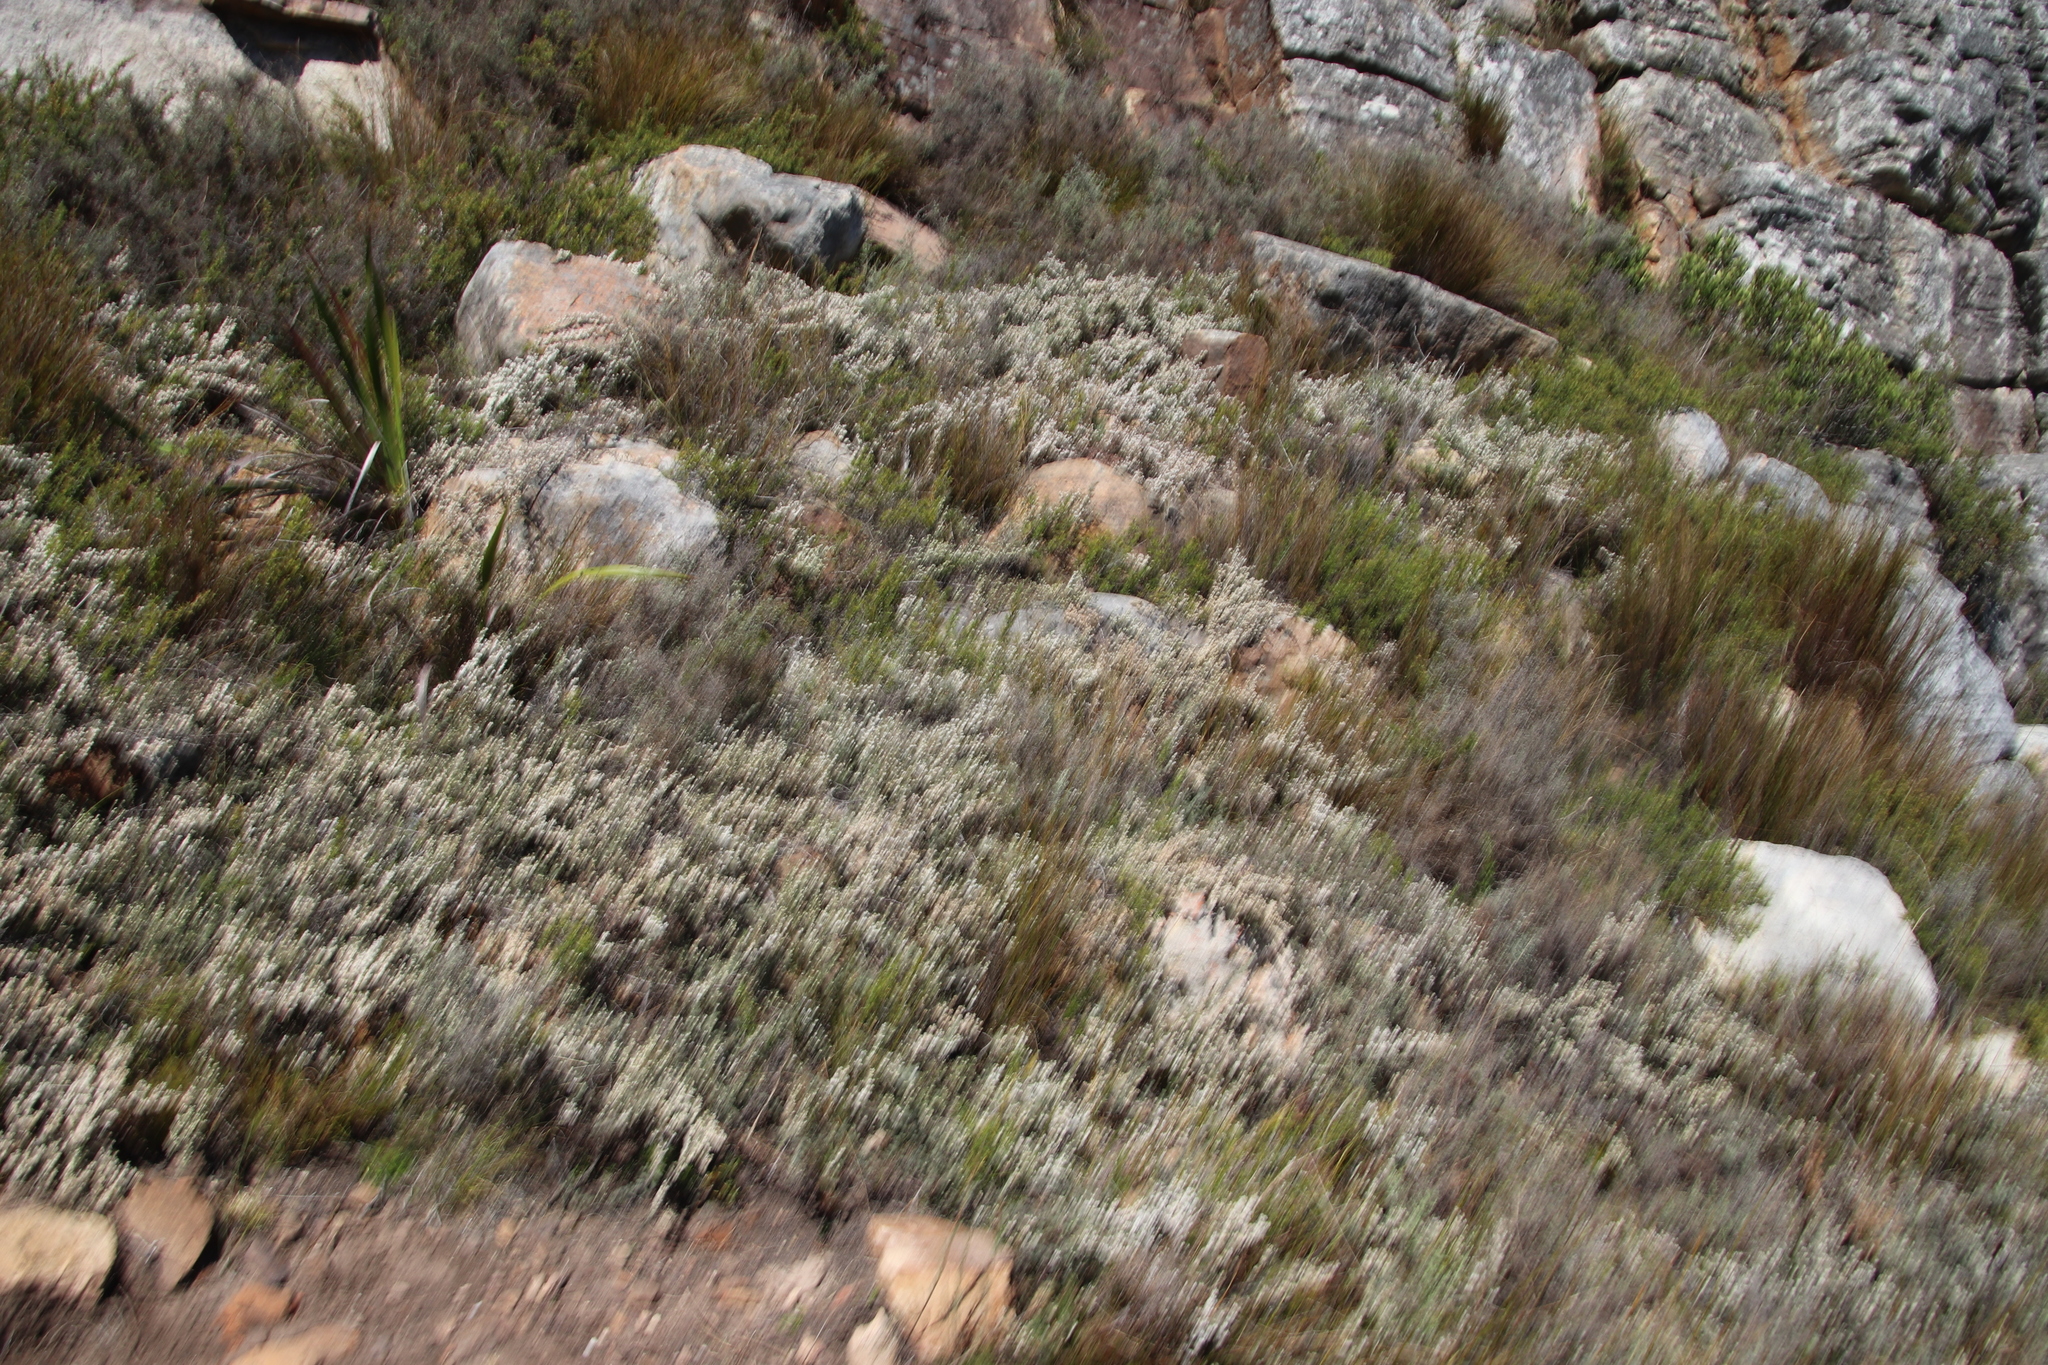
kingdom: Plantae
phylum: Tracheophyta
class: Magnoliopsida
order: Ericales
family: Ericaceae
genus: Erica
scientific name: Erica totta
